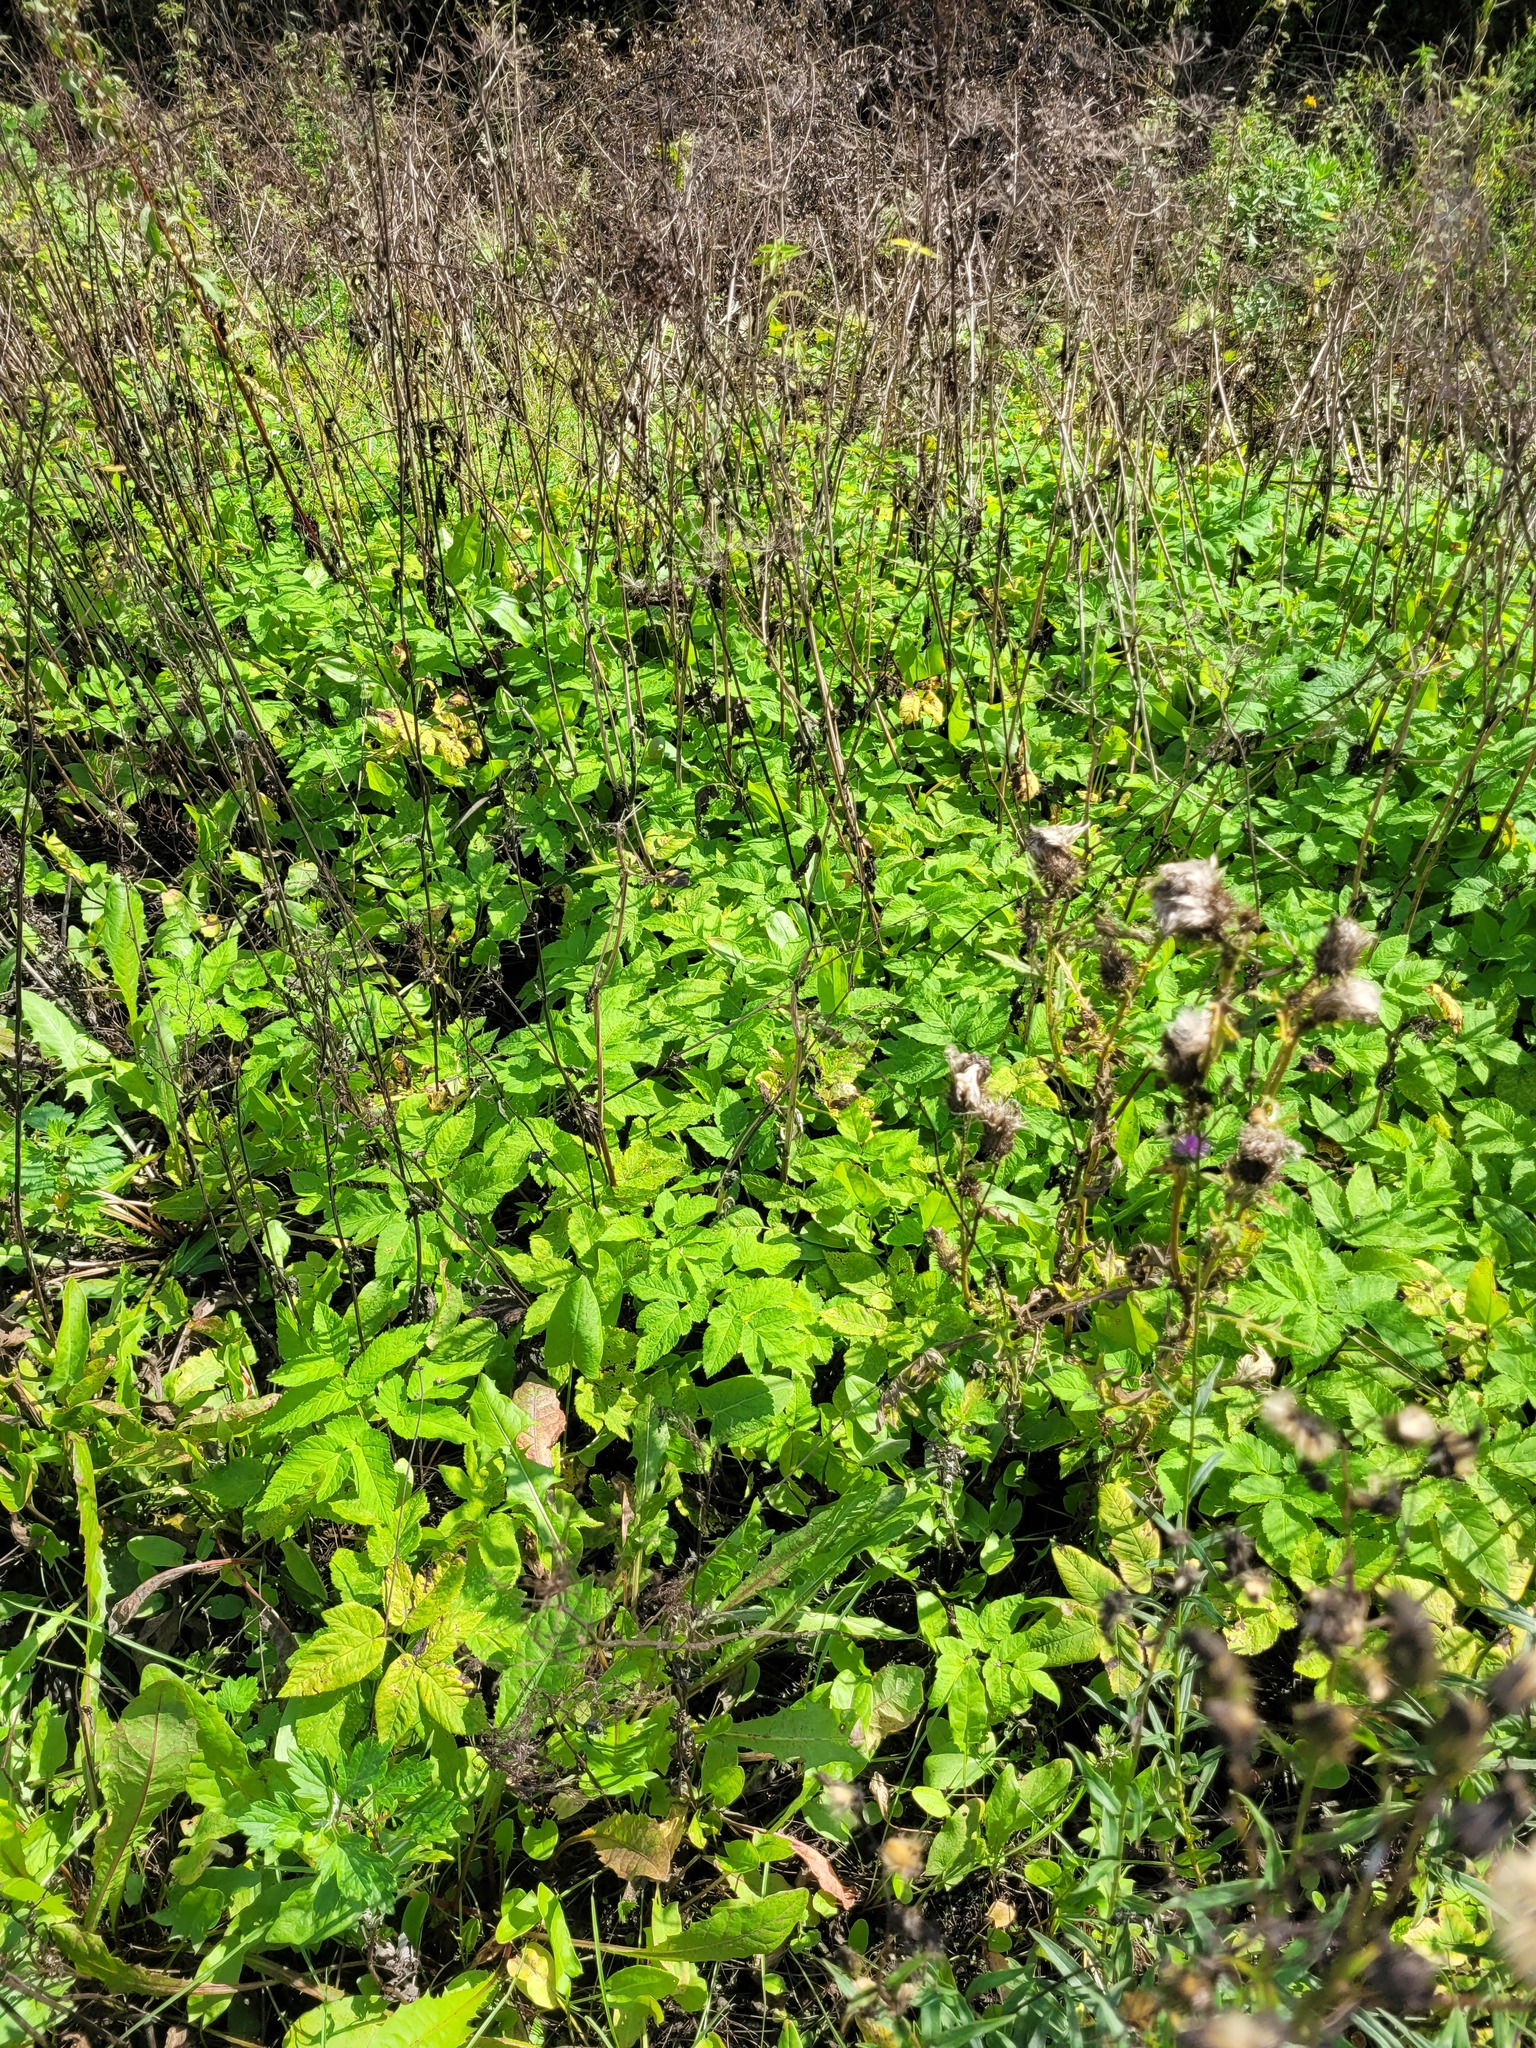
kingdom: Plantae
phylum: Tracheophyta
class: Magnoliopsida
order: Apiales
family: Apiaceae
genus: Aegopodium
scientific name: Aegopodium podagraria
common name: Ground-elder
